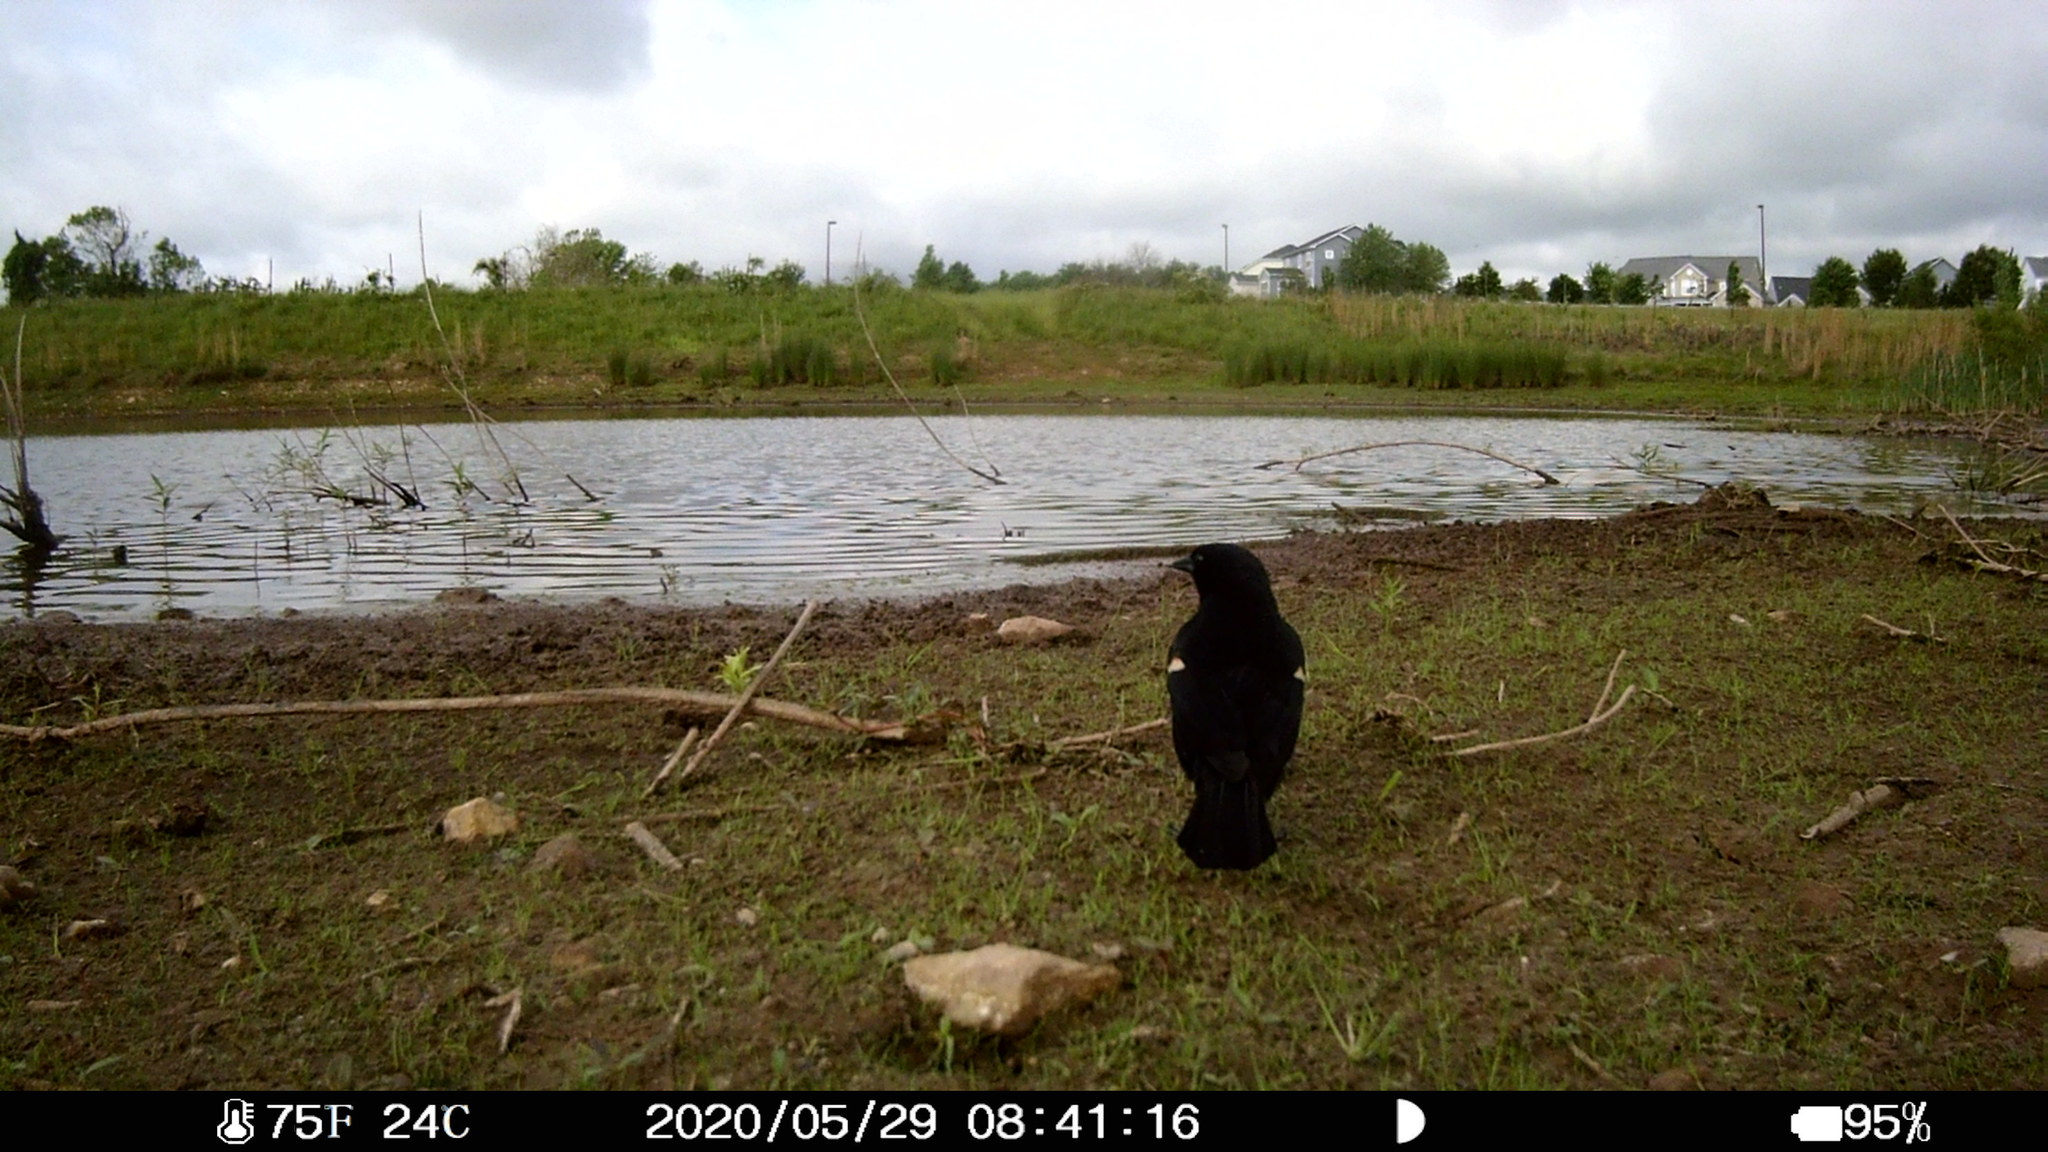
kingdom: Animalia
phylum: Chordata
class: Aves
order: Passeriformes
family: Icteridae
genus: Agelaius
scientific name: Agelaius phoeniceus
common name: Red-winged blackbird
